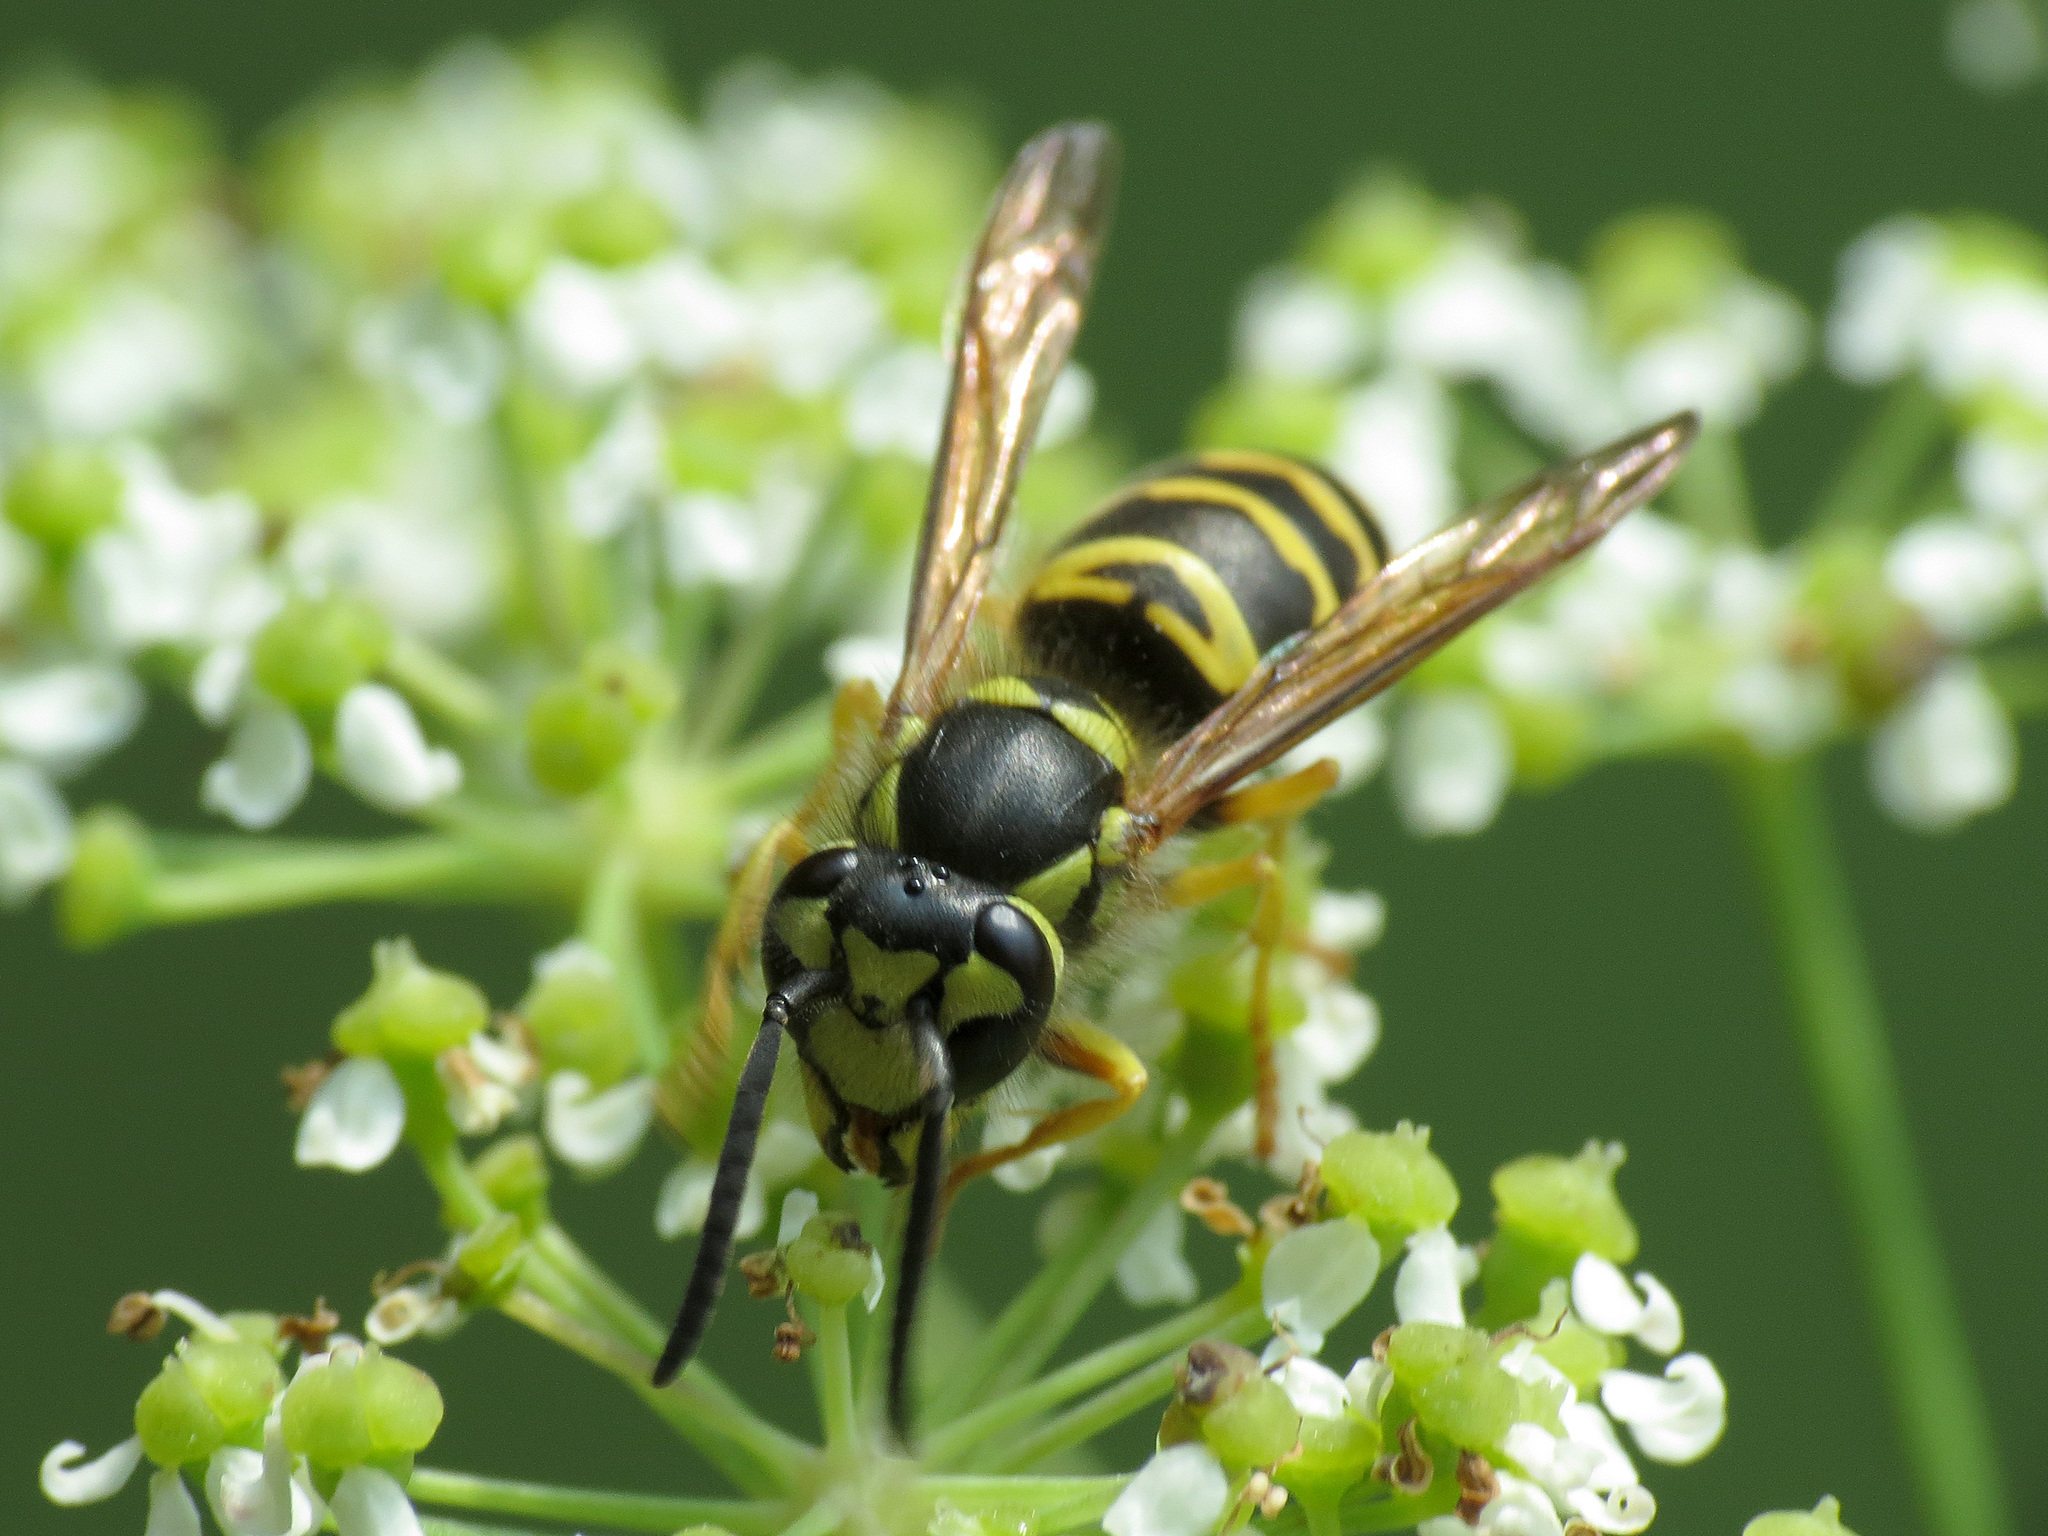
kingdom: Animalia
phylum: Arthropoda
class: Insecta
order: Hymenoptera
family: Vespidae
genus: Vespula
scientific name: Vespula maculifrons
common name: Eastern yellowjacket
